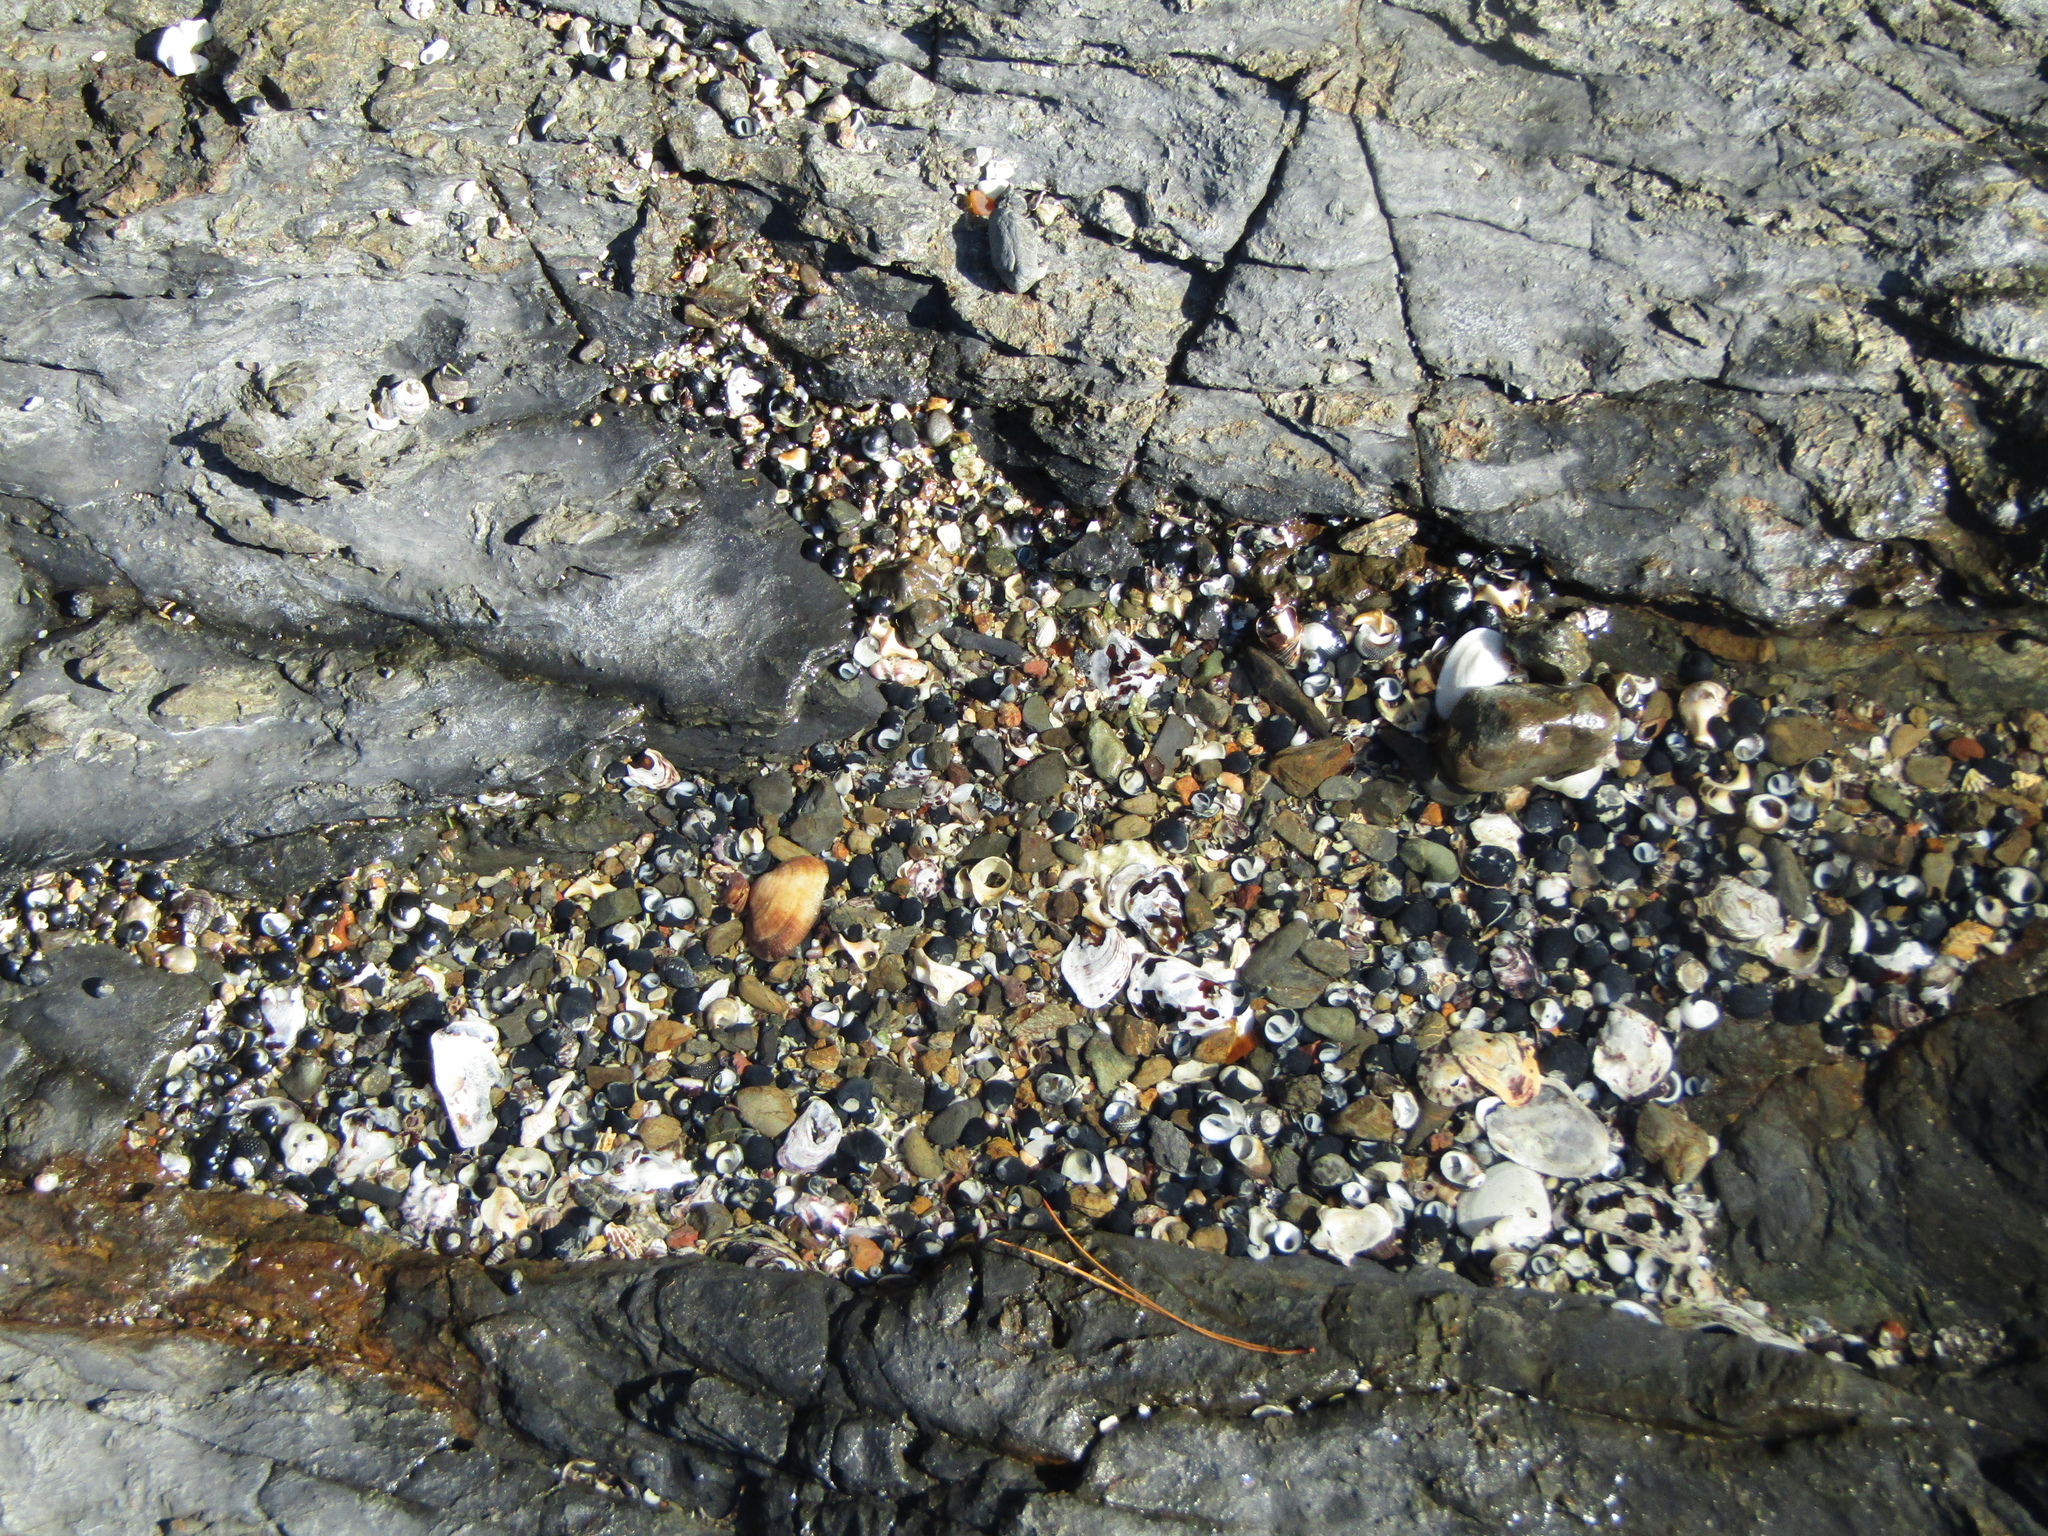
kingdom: Animalia
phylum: Mollusca
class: Bivalvia
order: Arcida
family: Arcidae
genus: Barbatia
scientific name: Barbatia novaezealandiae
